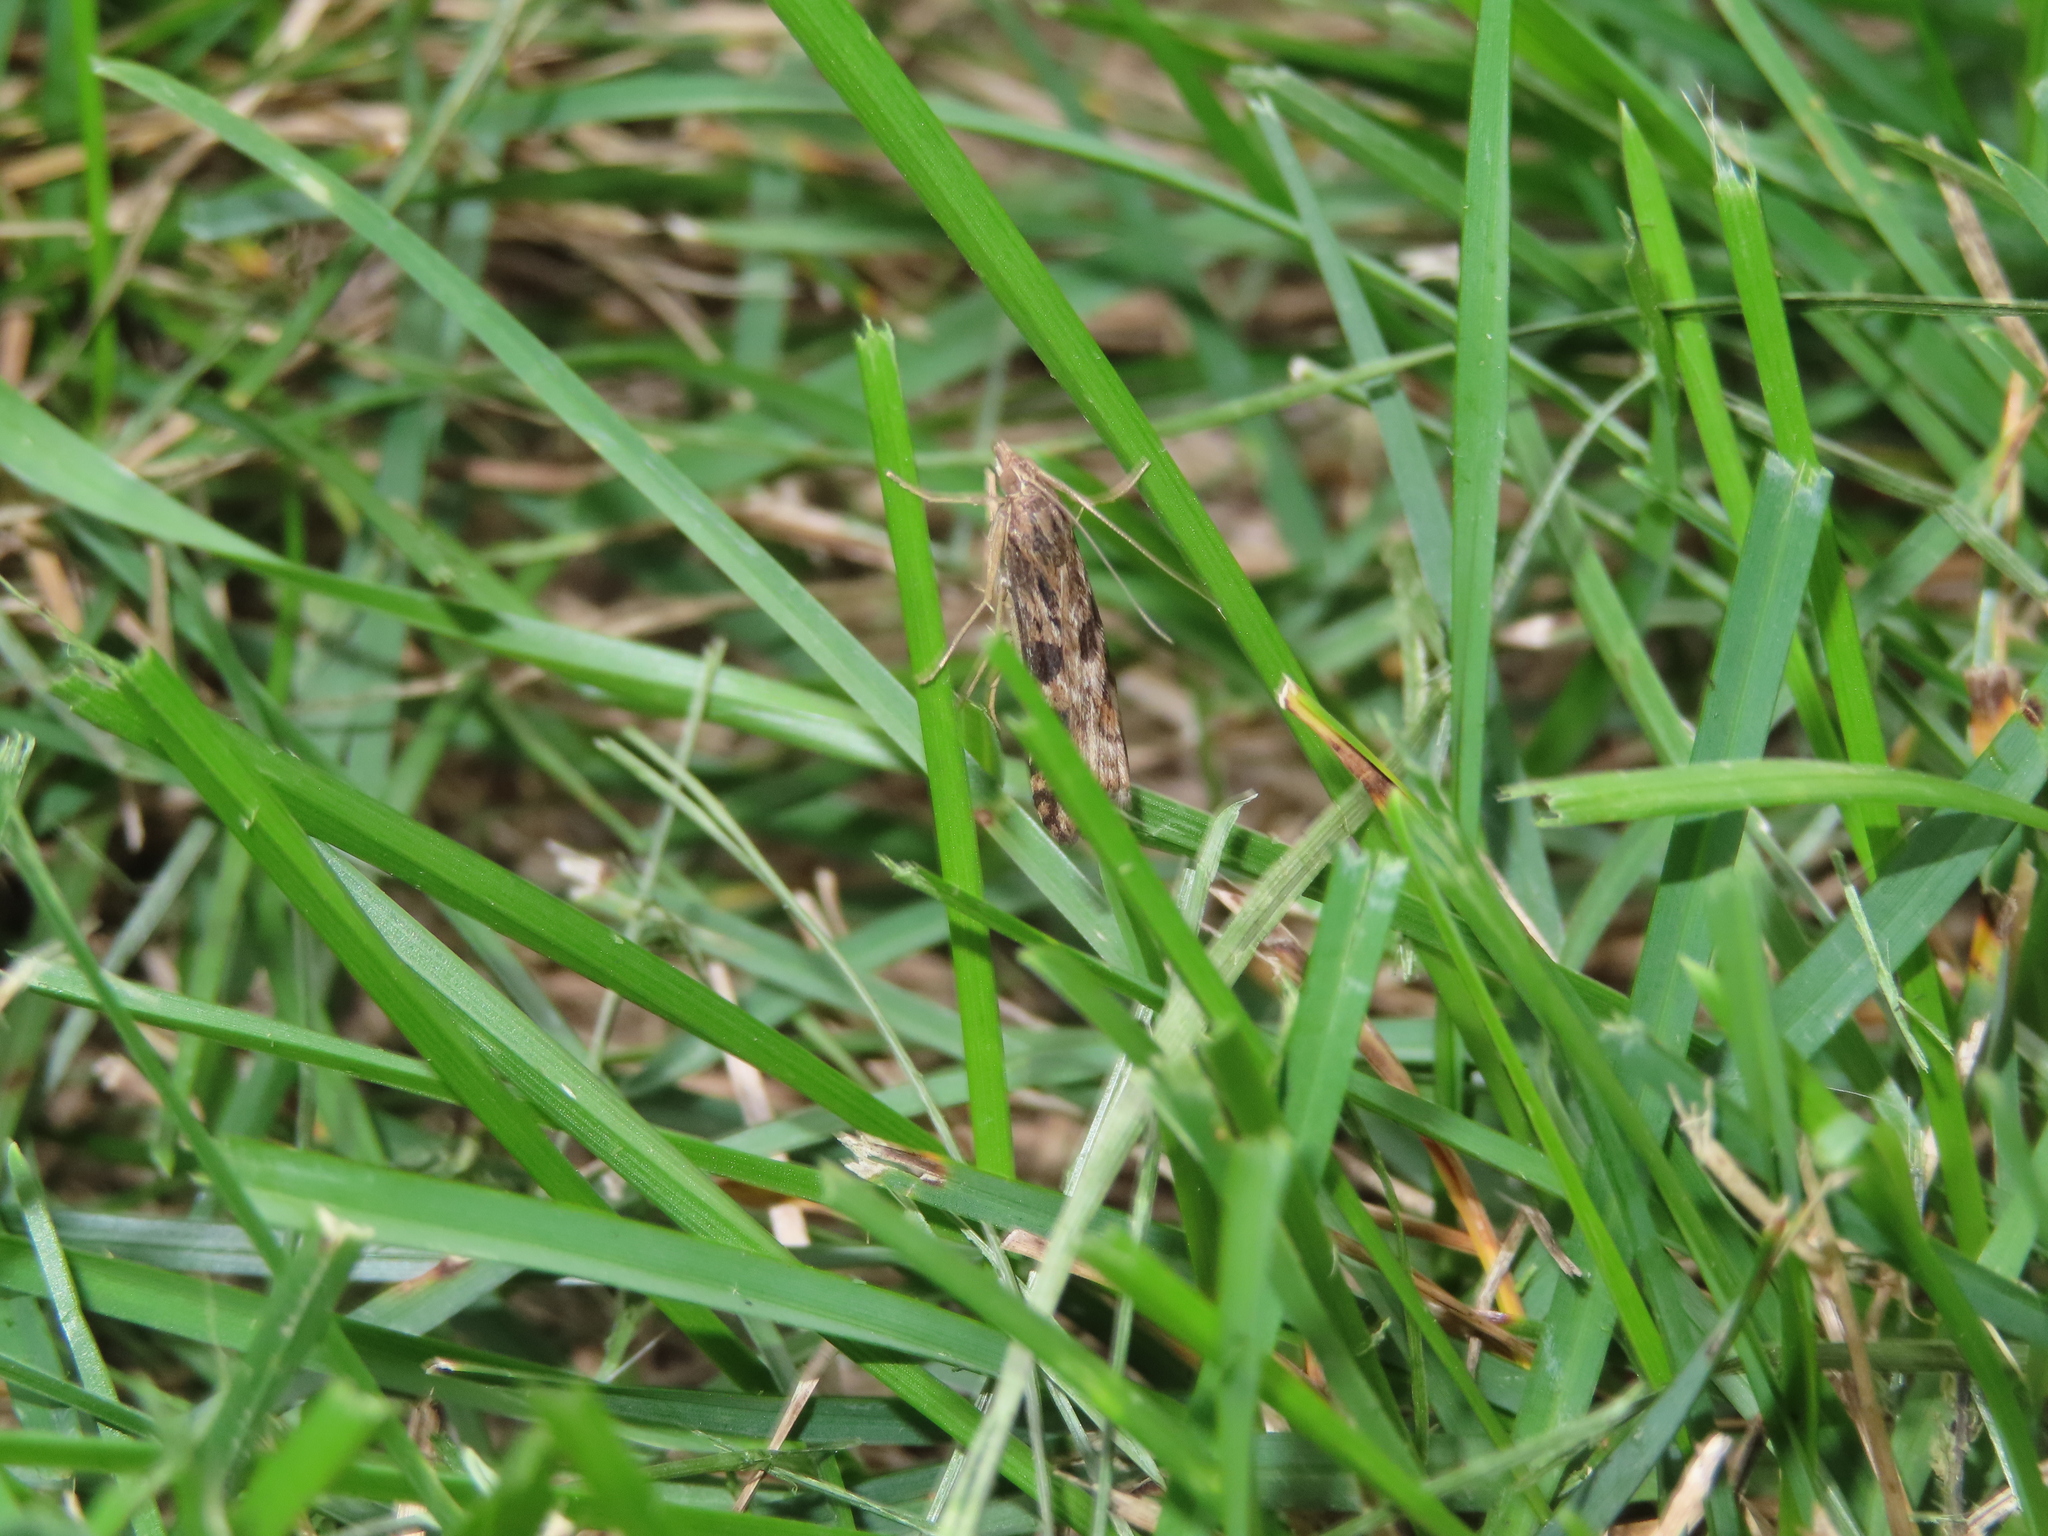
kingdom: Animalia
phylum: Arthropoda
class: Insecta
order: Lepidoptera
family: Crambidae
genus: Nomophila
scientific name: Nomophila nearctica
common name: American rush veneer
